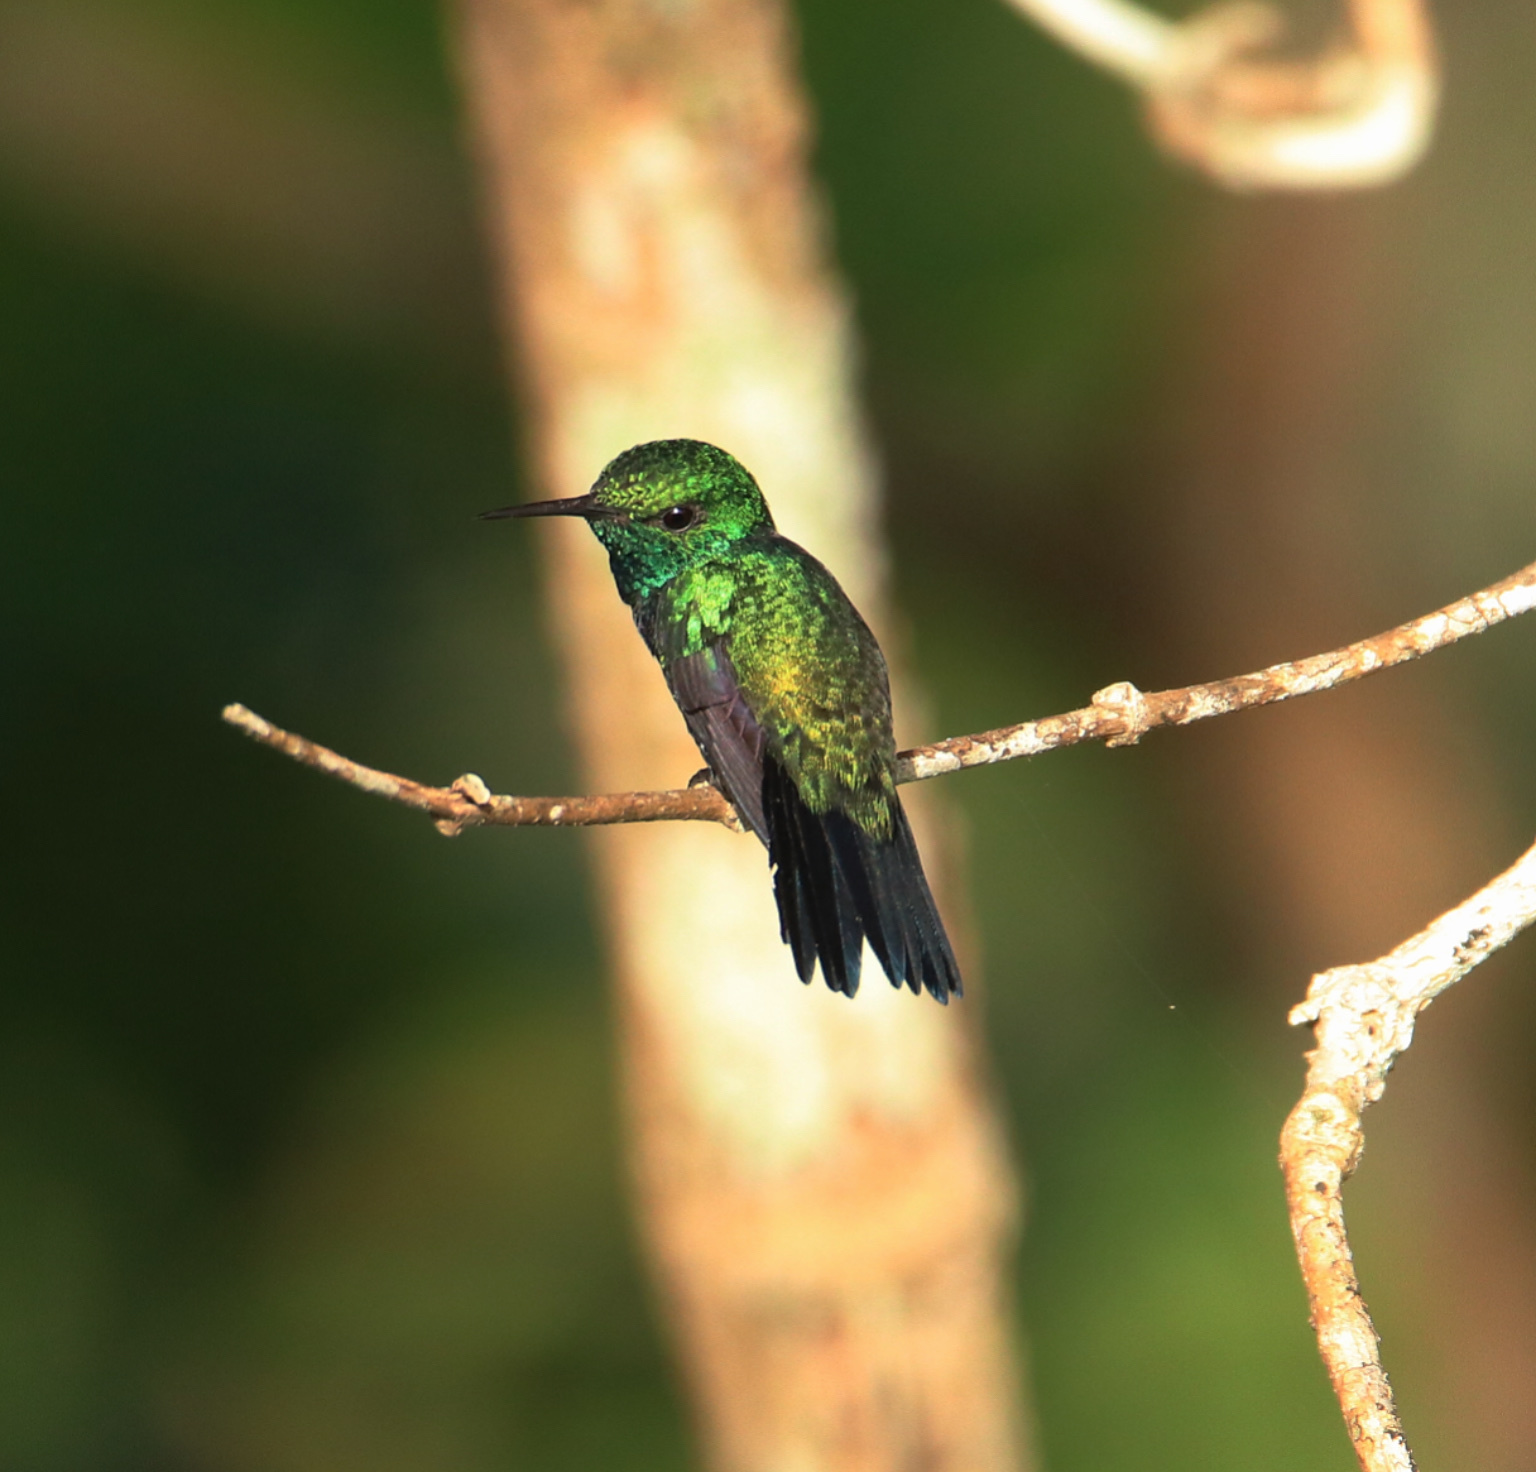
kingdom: Animalia
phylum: Chordata
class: Aves
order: Apodiformes
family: Trochilidae
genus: Chlorostilbon
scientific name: Chlorostilbon assimilis
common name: Garden emerald
